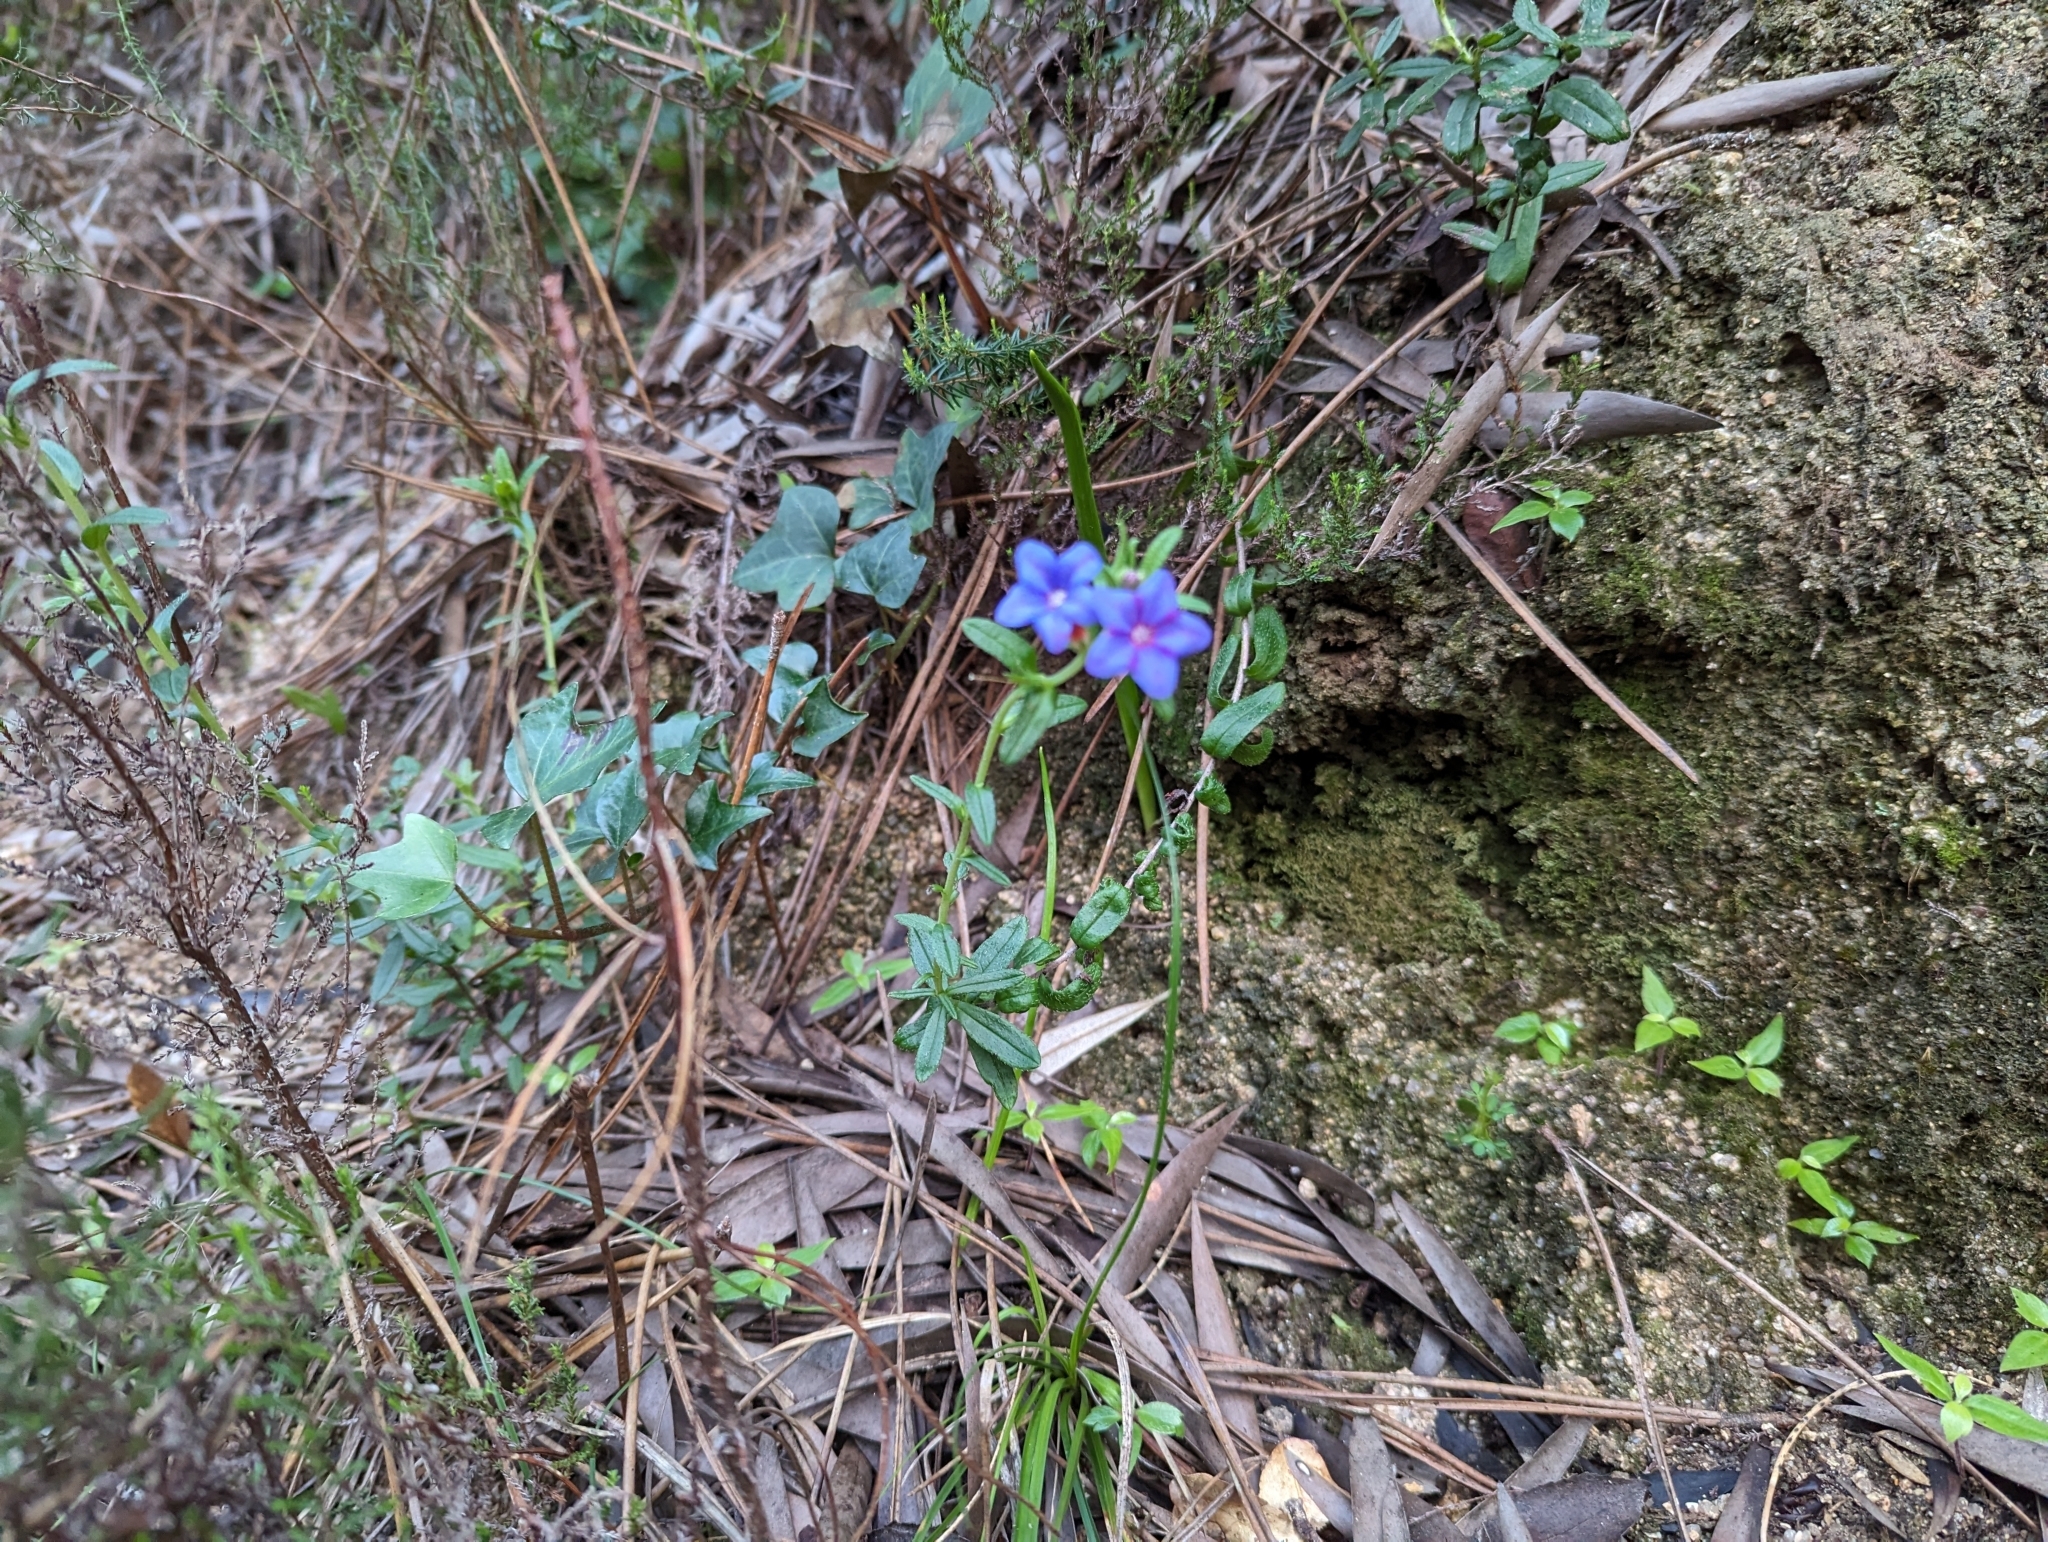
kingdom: Plantae
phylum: Tracheophyta
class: Magnoliopsida
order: Boraginales
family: Boraginaceae
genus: Glandora
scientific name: Glandora prostrata
